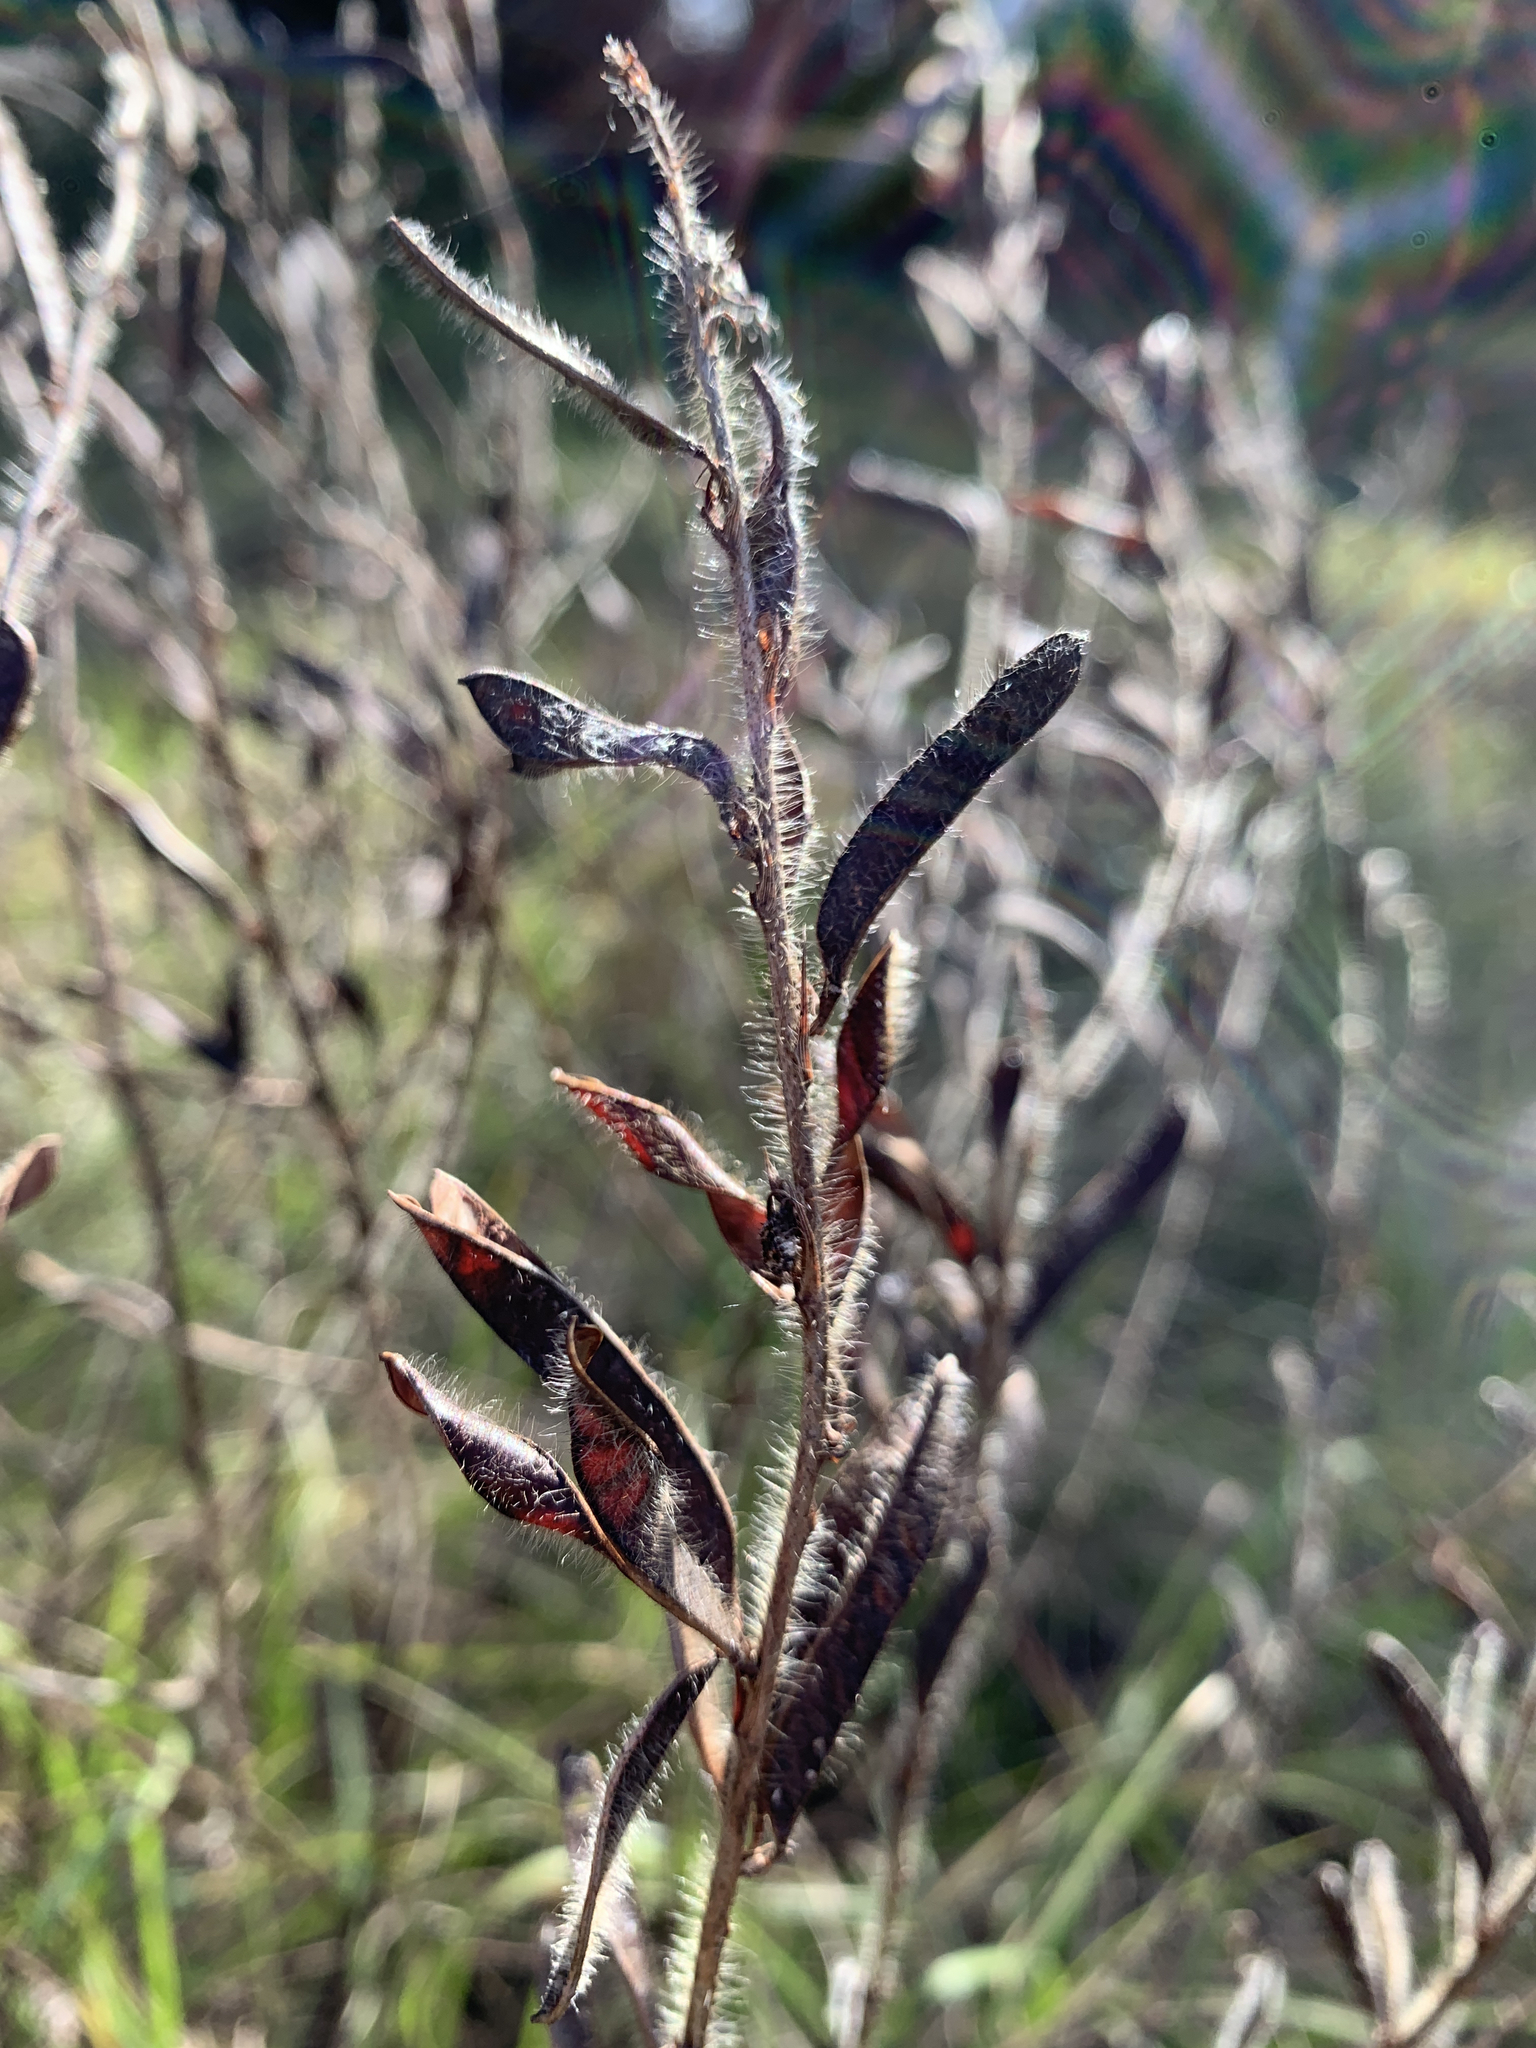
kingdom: Plantae
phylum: Tracheophyta
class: Magnoliopsida
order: Fabales
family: Fabaceae
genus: Chamaecrista
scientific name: Chamaecrista nictitans
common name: Sensitive cassia
